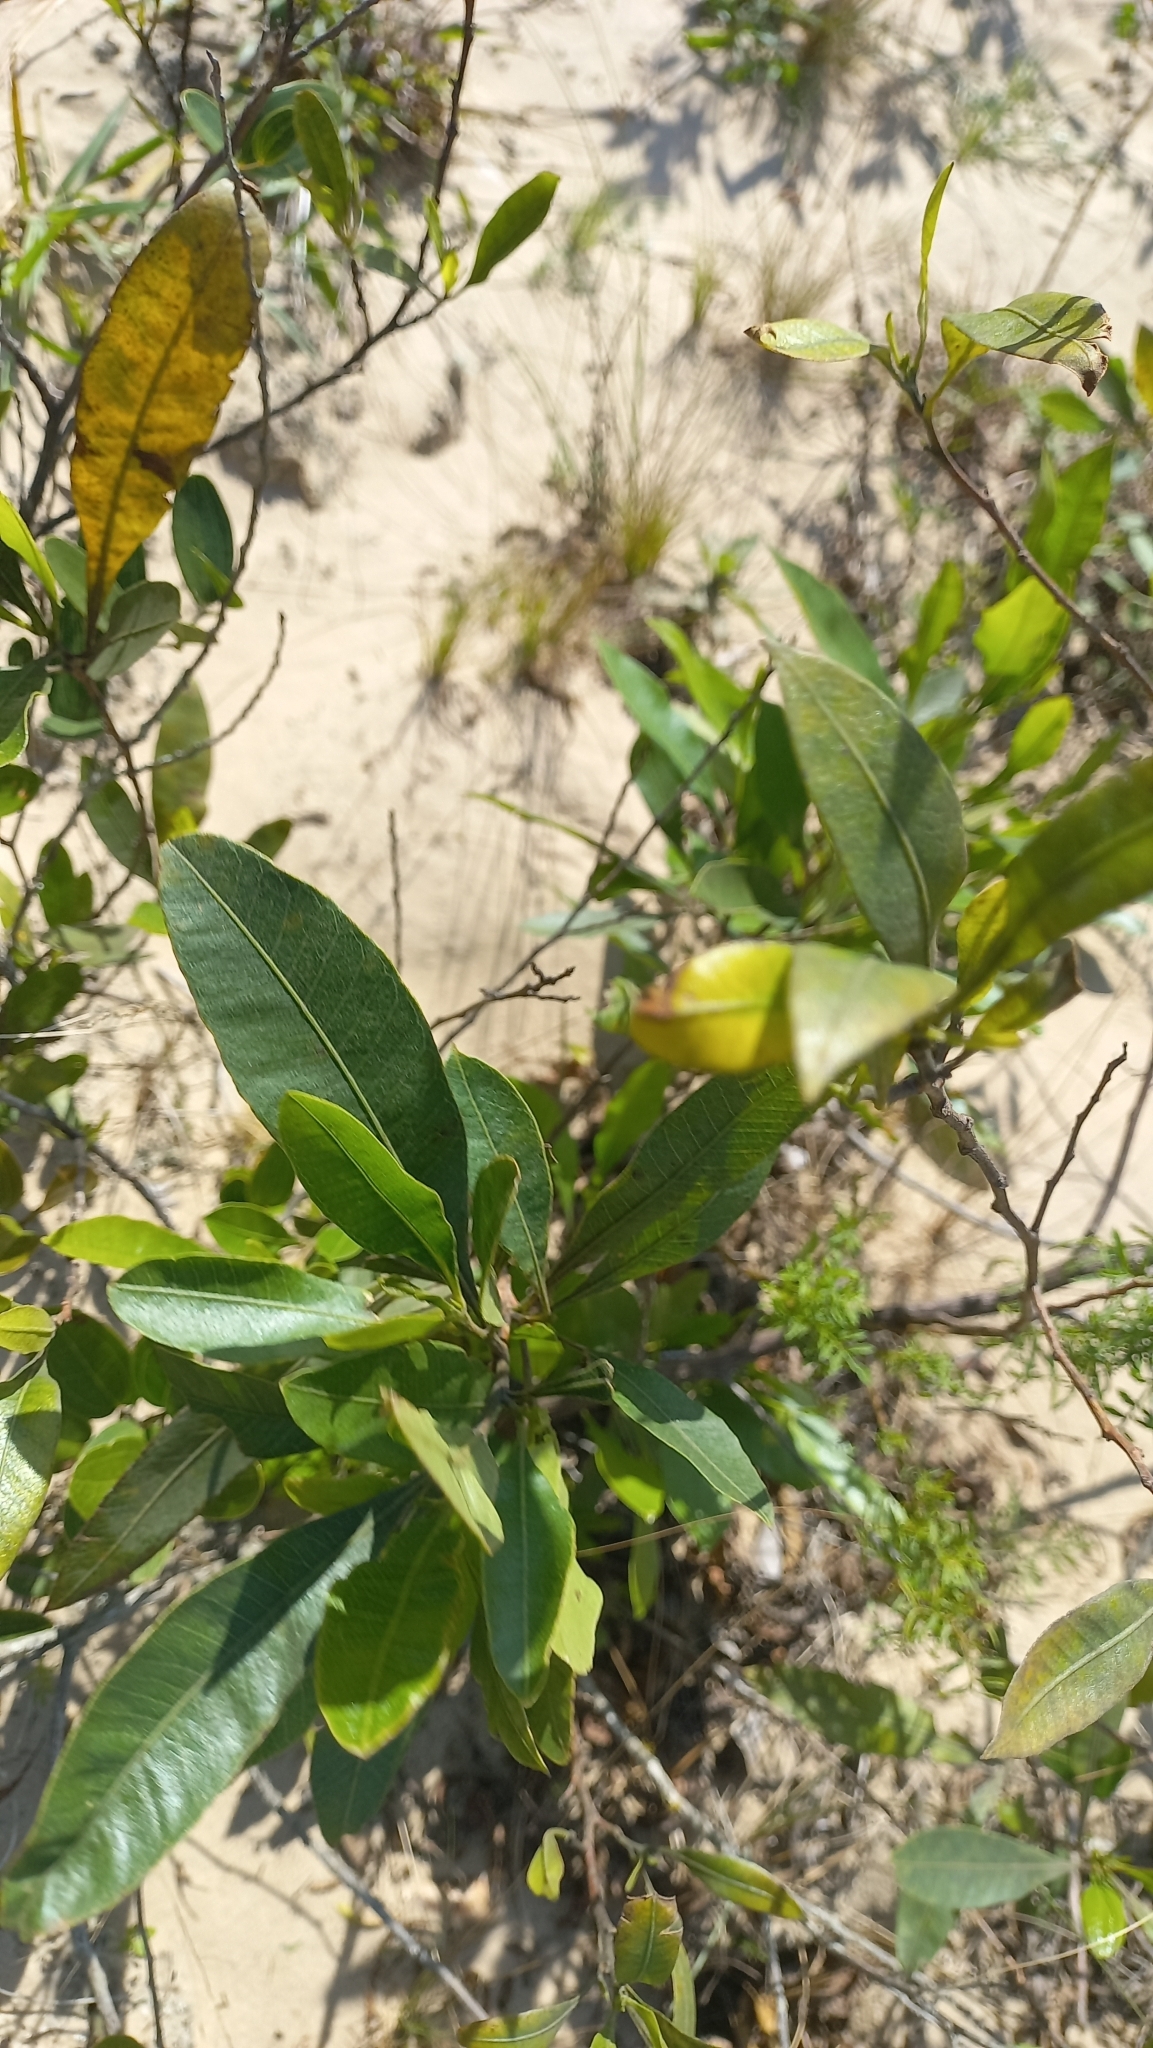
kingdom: Plantae
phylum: Tracheophyta
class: Magnoliopsida
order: Sapindales
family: Sapindaceae
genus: Dodonaea
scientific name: Dodonaea viscosa
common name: Hopbush
